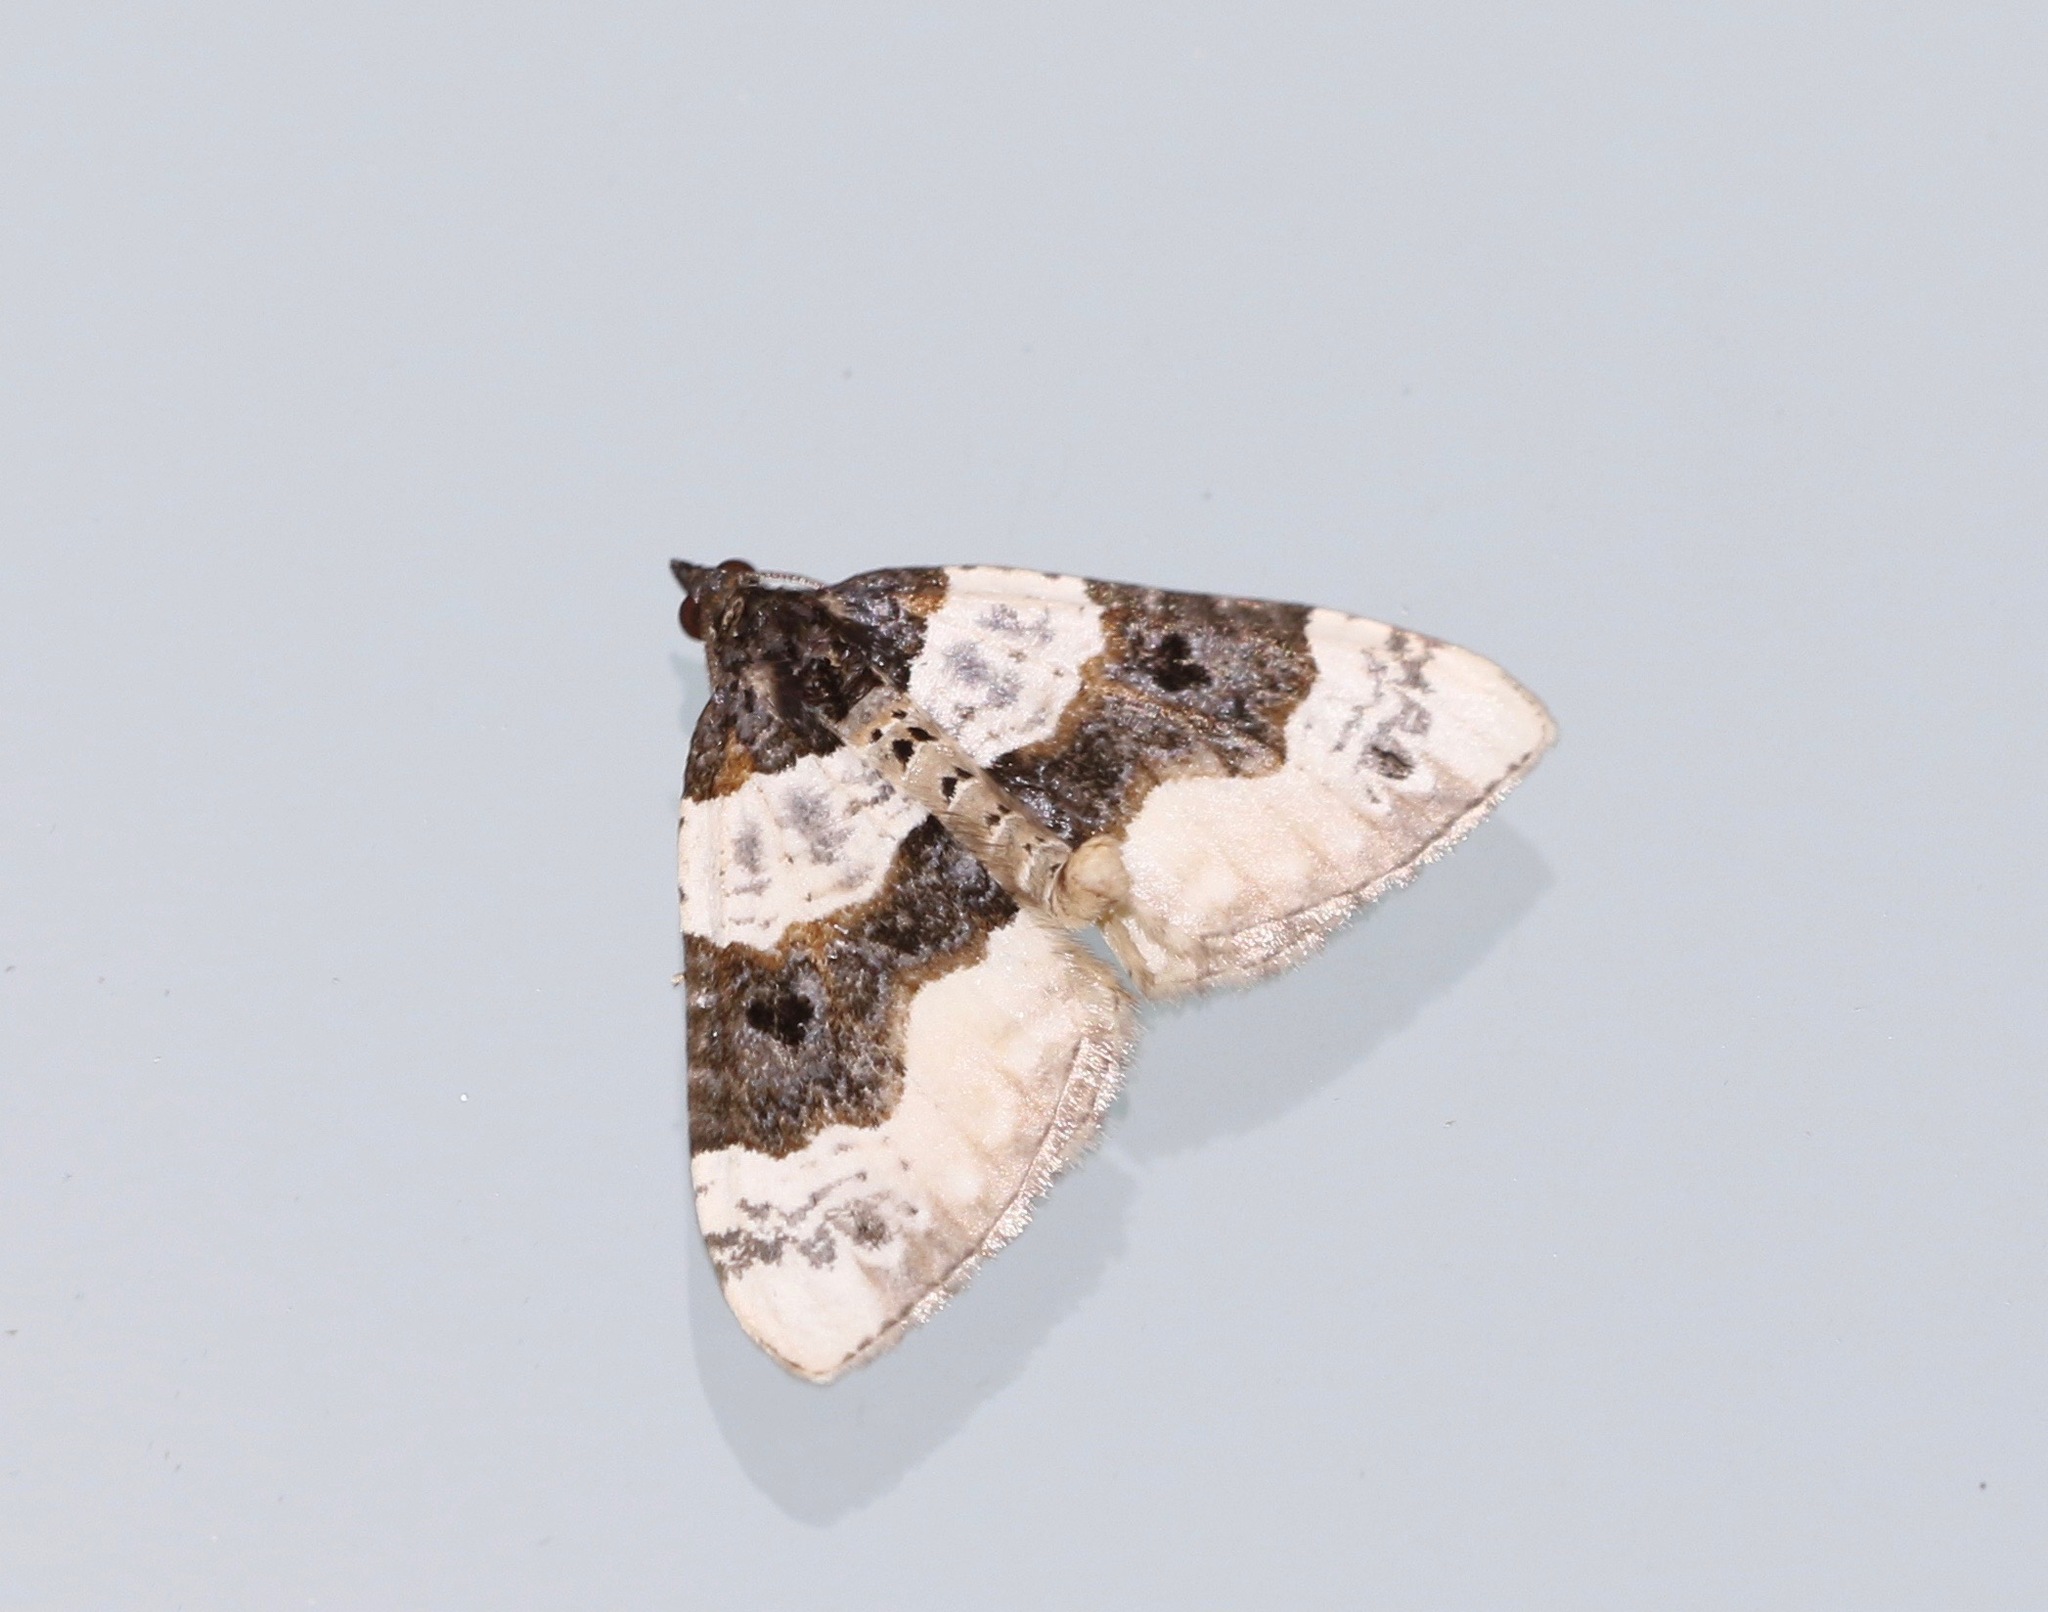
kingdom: Animalia
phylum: Arthropoda
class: Insecta
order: Lepidoptera
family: Geometridae
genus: Cosmorhoe
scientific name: Cosmorhoe ocellata
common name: Purple bar
